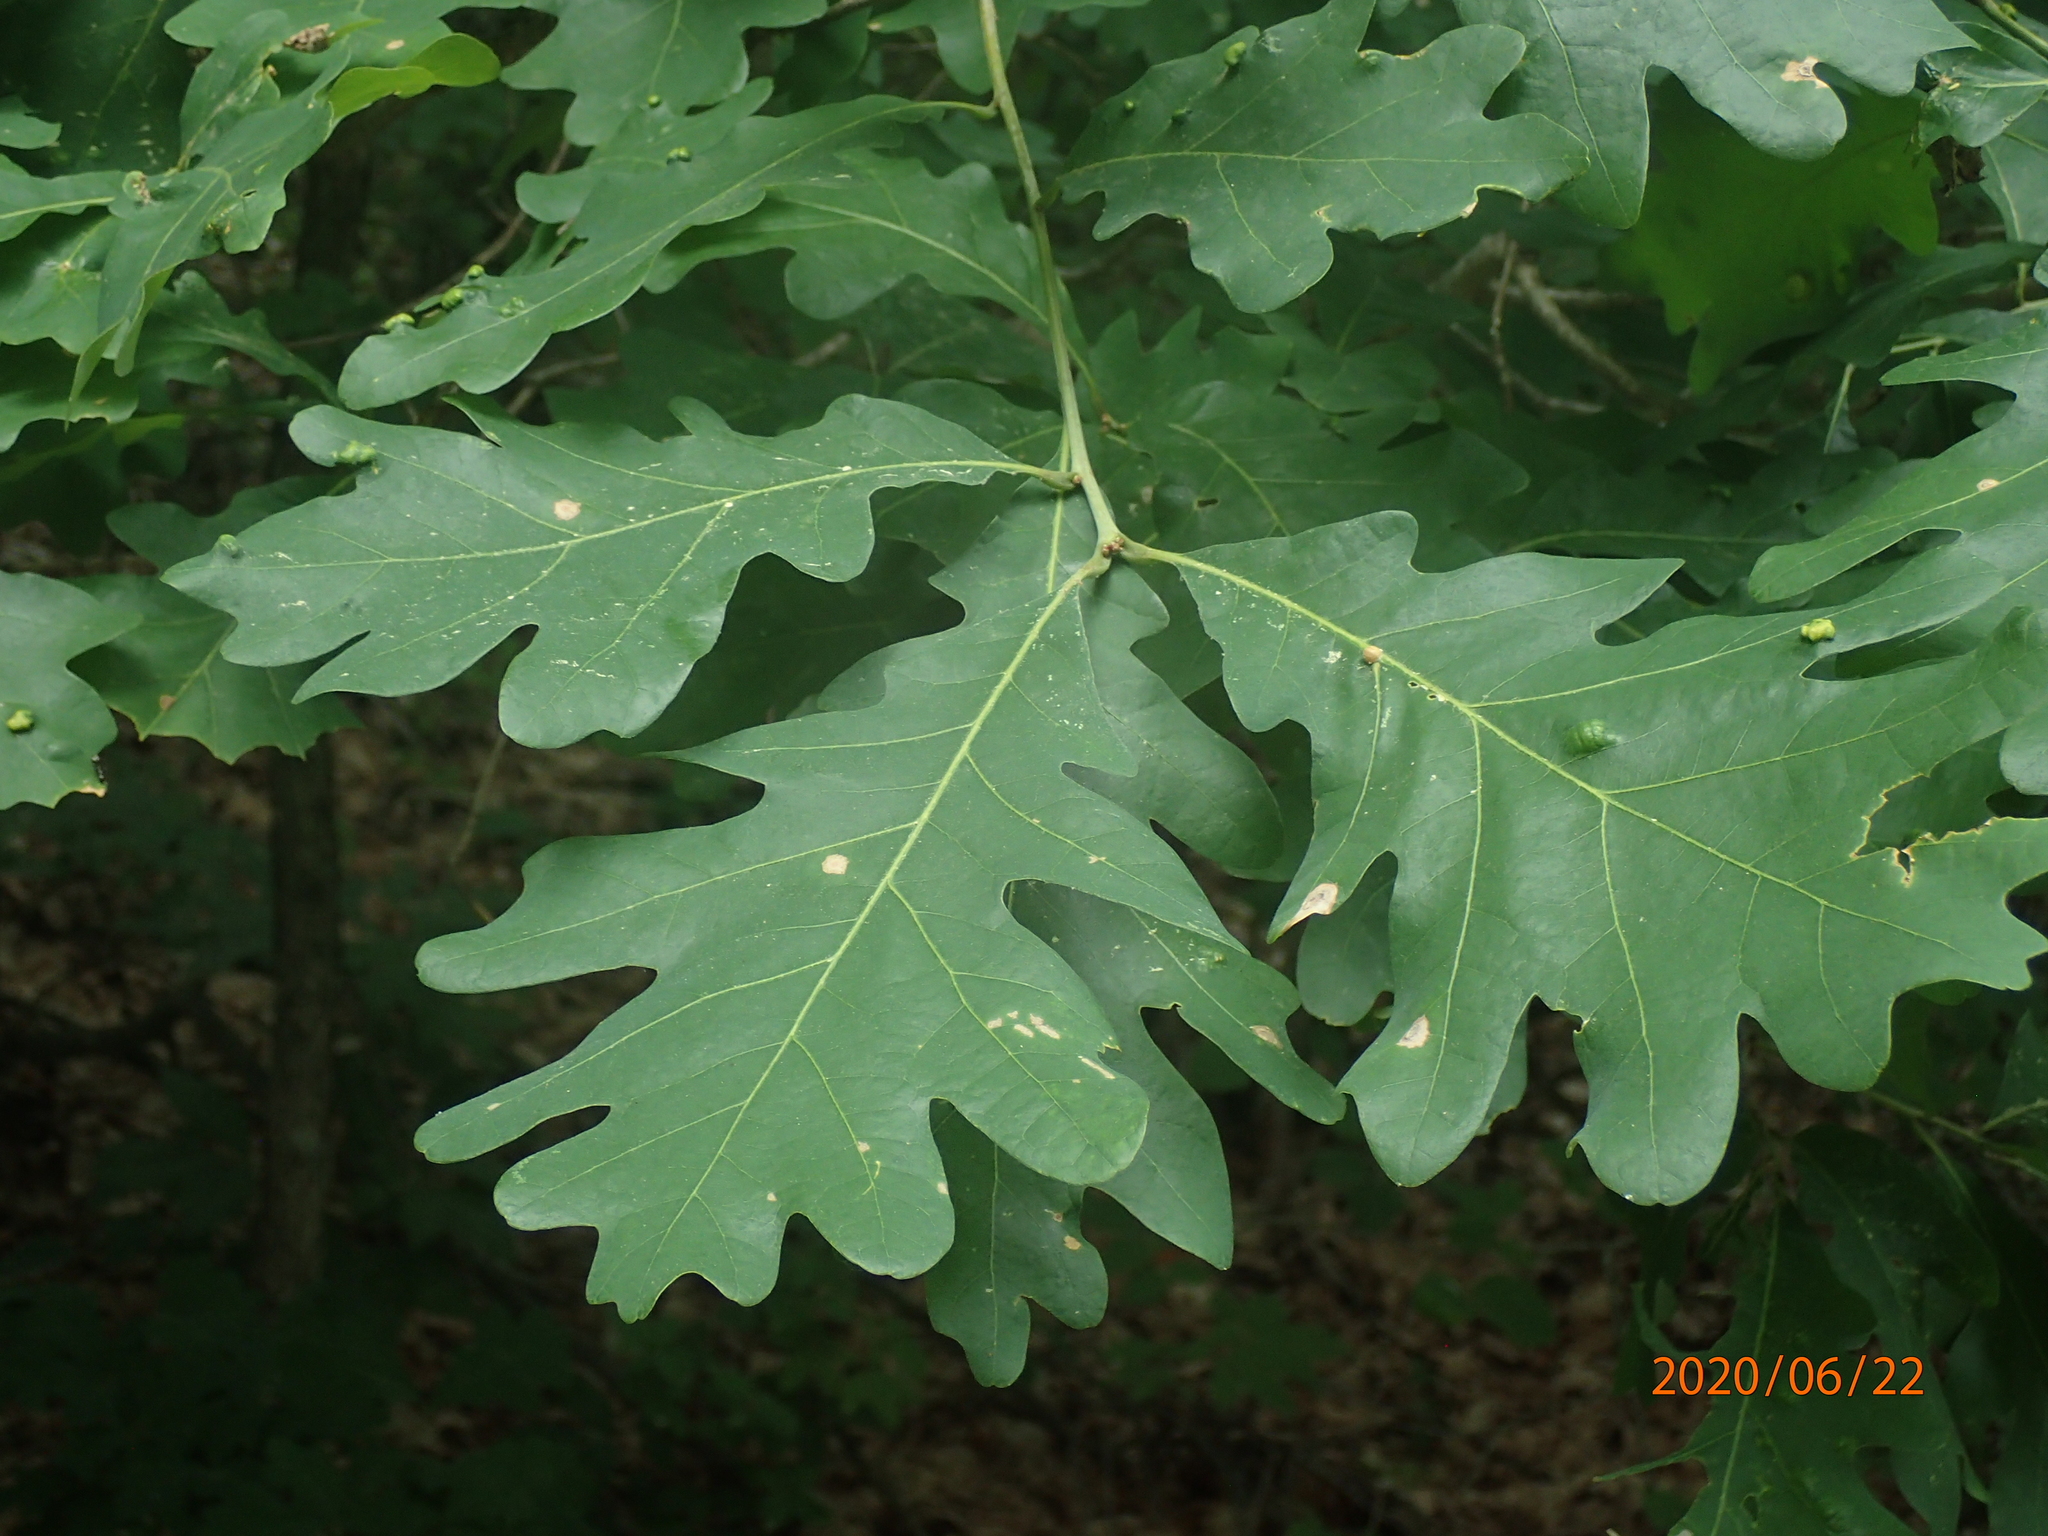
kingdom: Plantae
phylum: Tracheophyta
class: Magnoliopsida
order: Fagales
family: Fagaceae
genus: Quercus
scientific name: Quercus alba
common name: White oak
